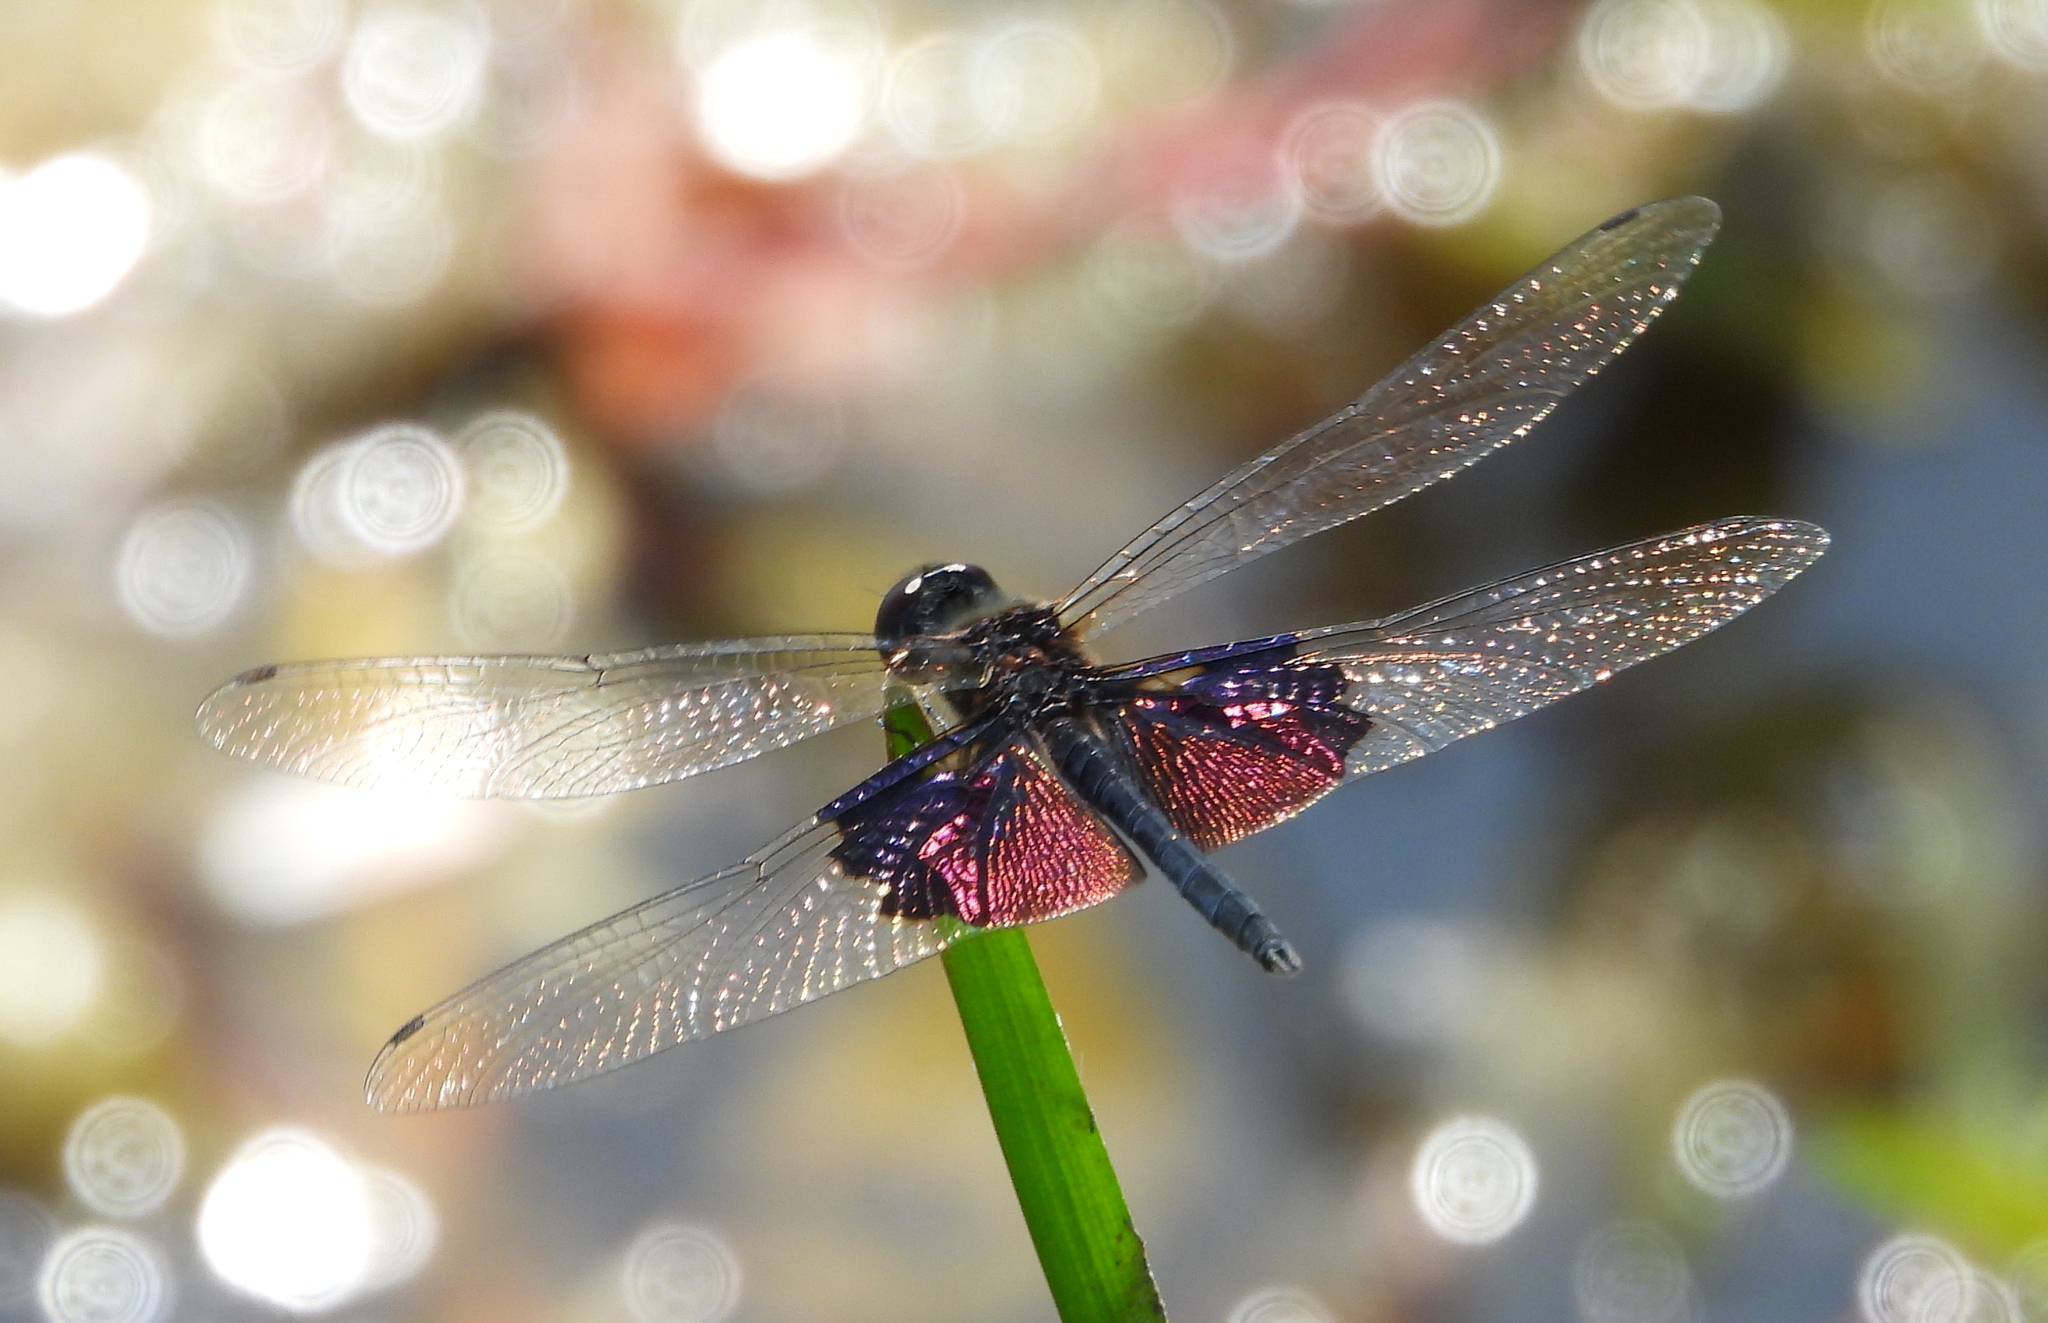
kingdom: Animalia
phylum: Arthropoda
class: Insecta
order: Odonata
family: Libellulidae
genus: Rhyothemis
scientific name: Rhyothemis semihyalina
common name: Phantom flutterer
